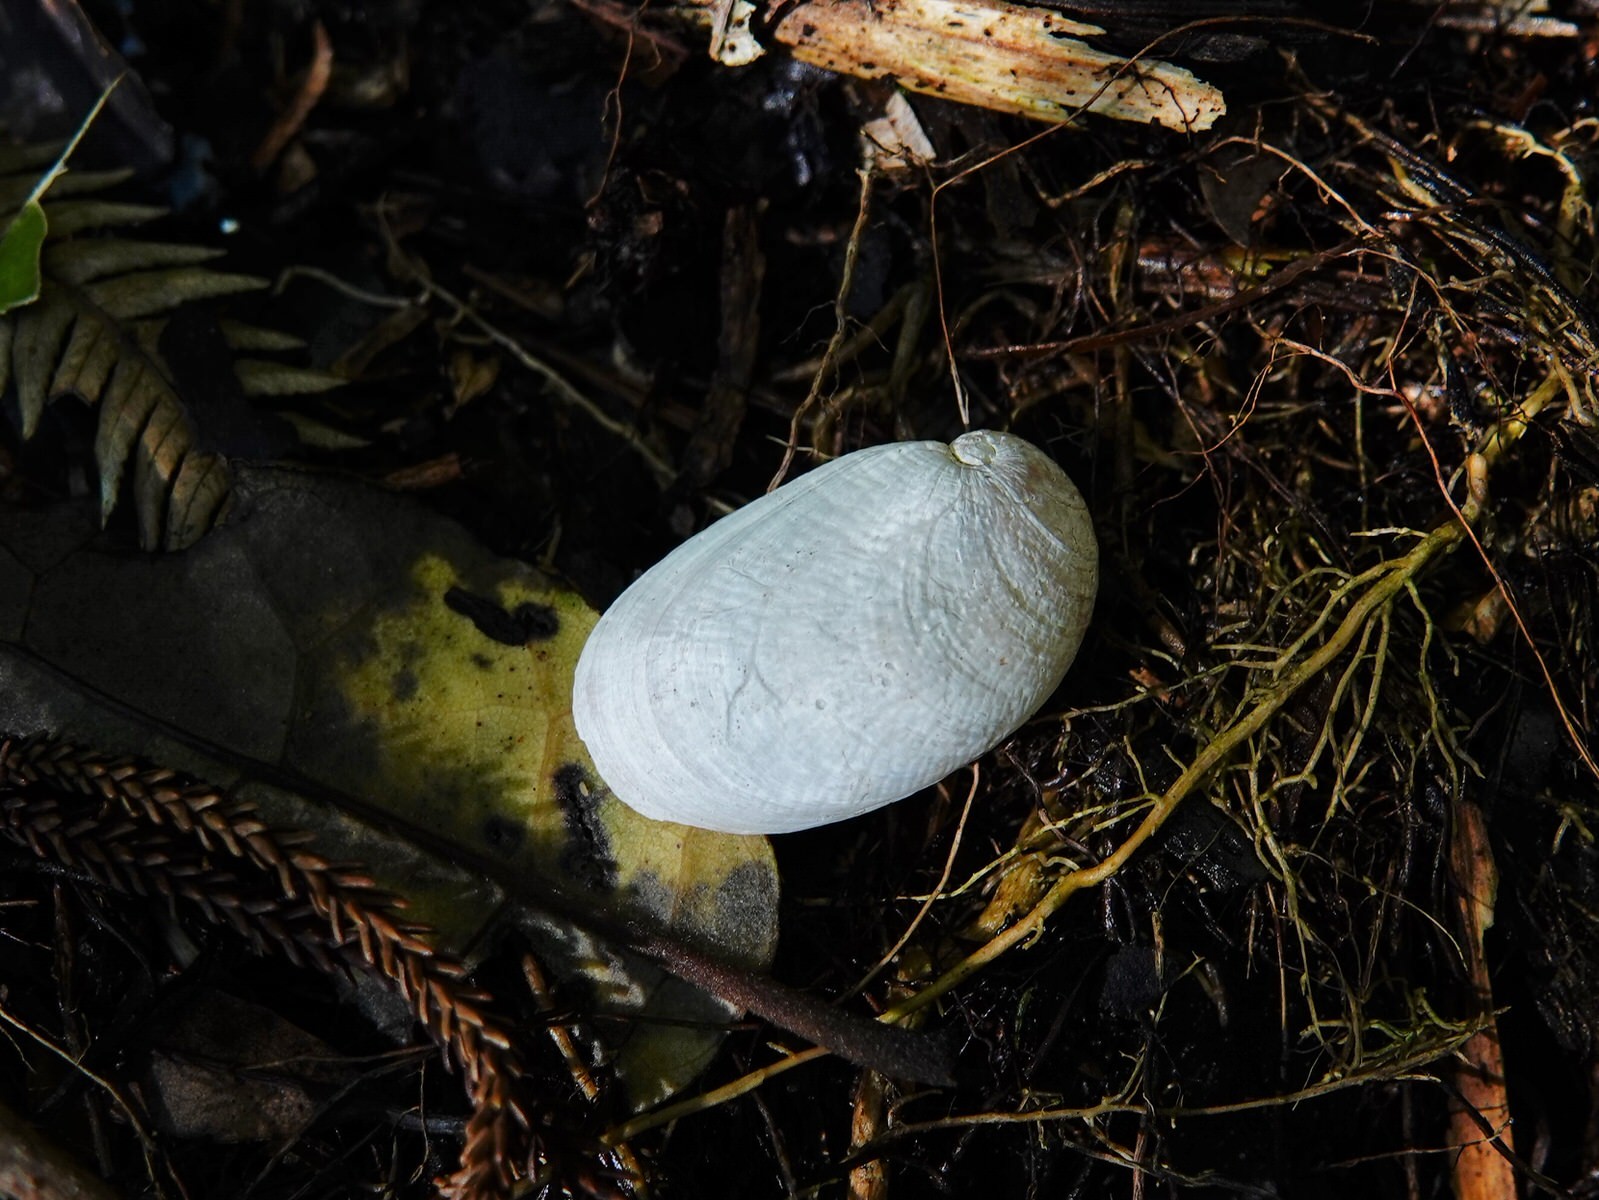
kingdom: Animalia
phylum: Mollusca
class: Gastropoda
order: Stylommatophora
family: Rhytididae
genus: Schizoglossa
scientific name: Schizoglossa novoseelandica
